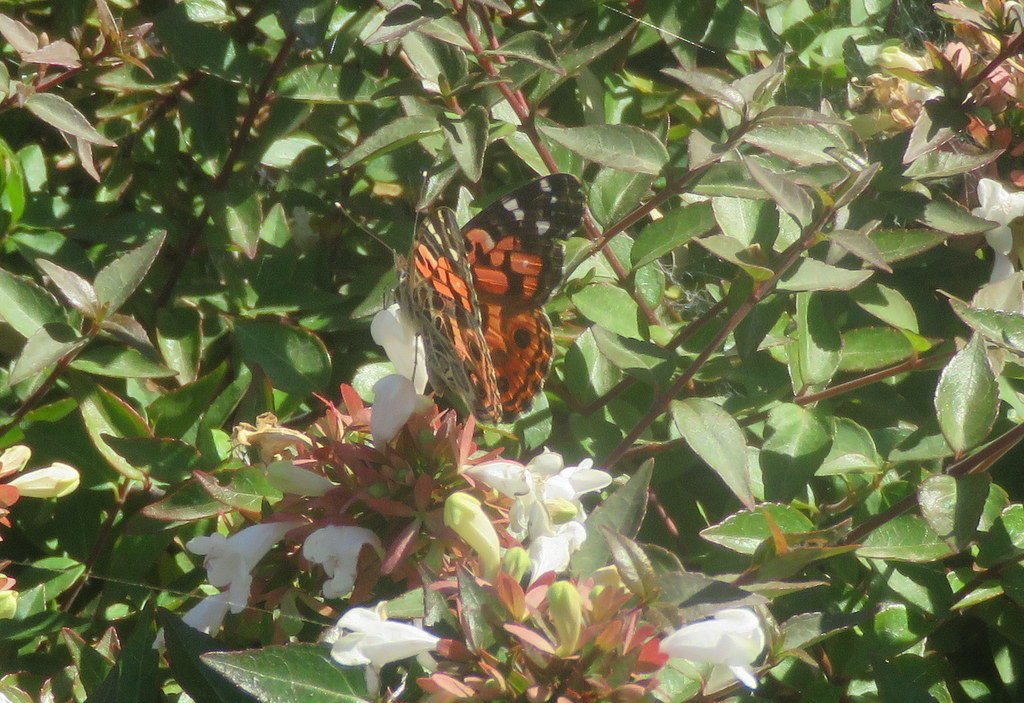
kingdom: Animalia
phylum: Arthropoda
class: Insecta
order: Lepidoptera
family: Nymphalidae
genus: Vanessa
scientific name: Vanessa braziliensis
